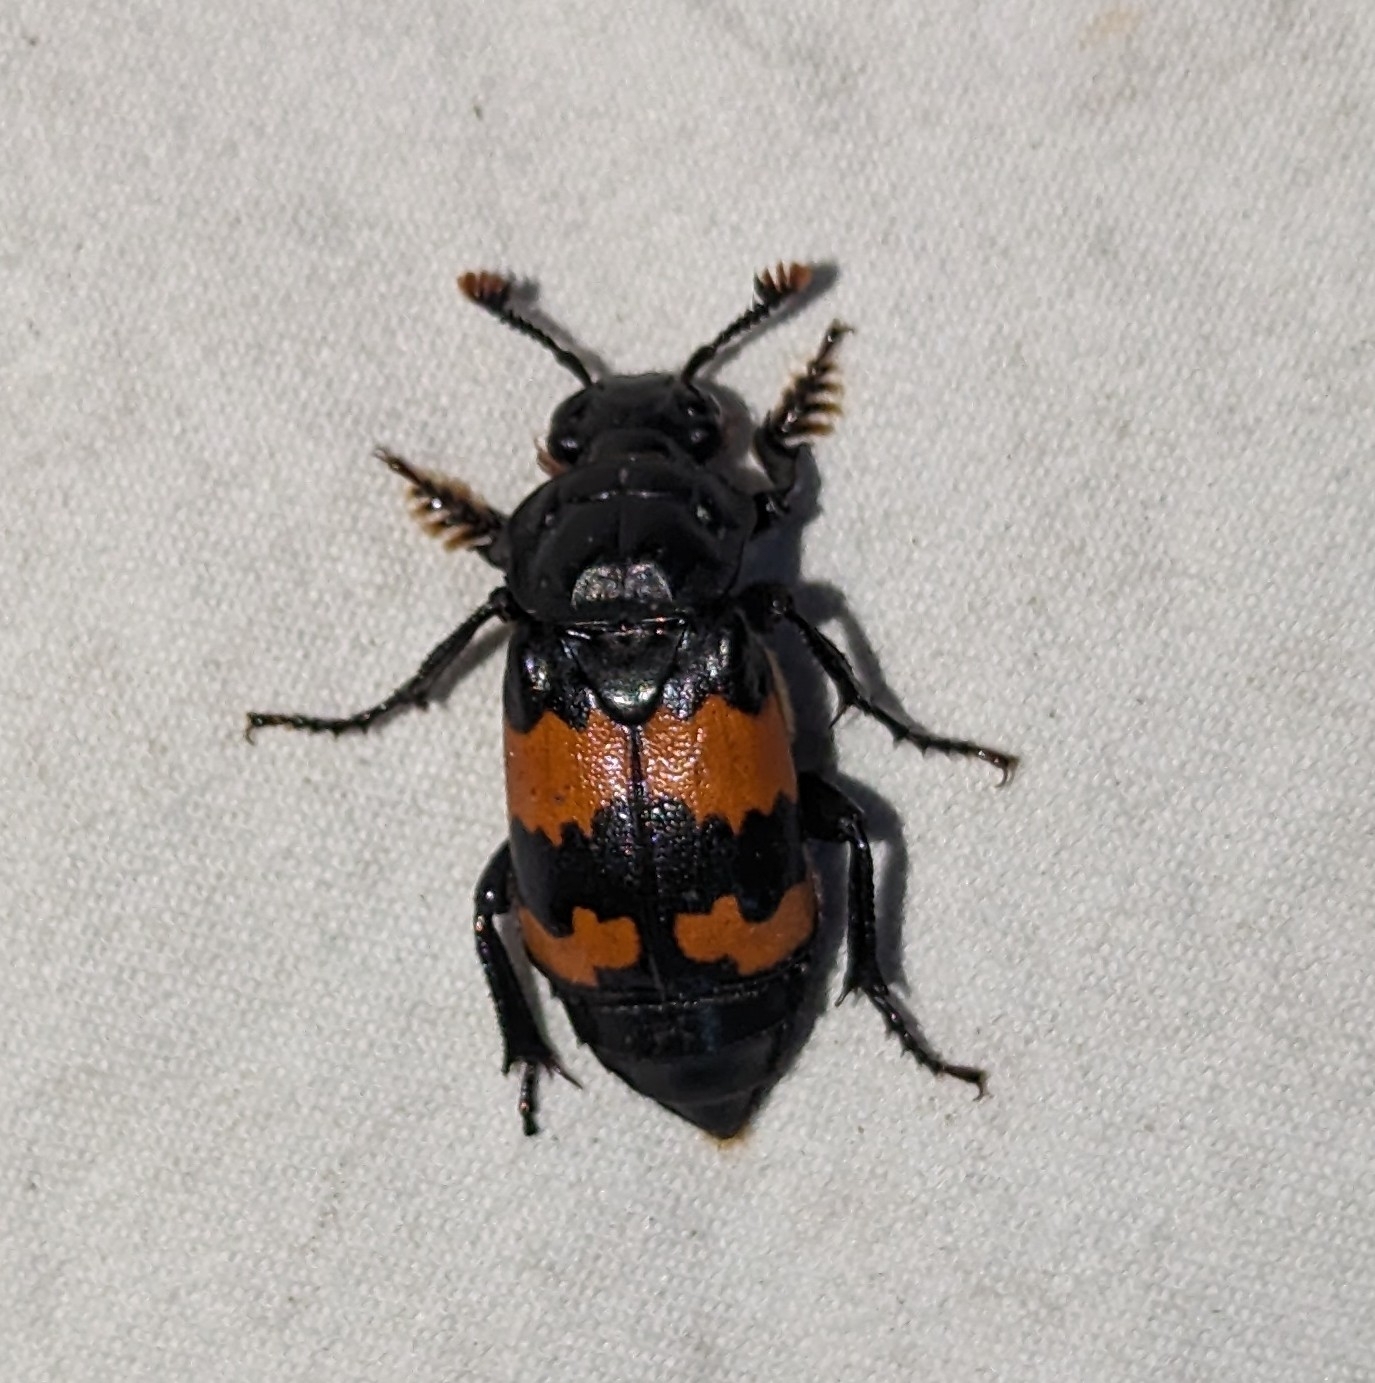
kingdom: Animalia
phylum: Arthropoda
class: Insecta
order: Coleoptera
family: Staphylinidae
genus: Nicrophorus
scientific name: Nicrophorus investigator
